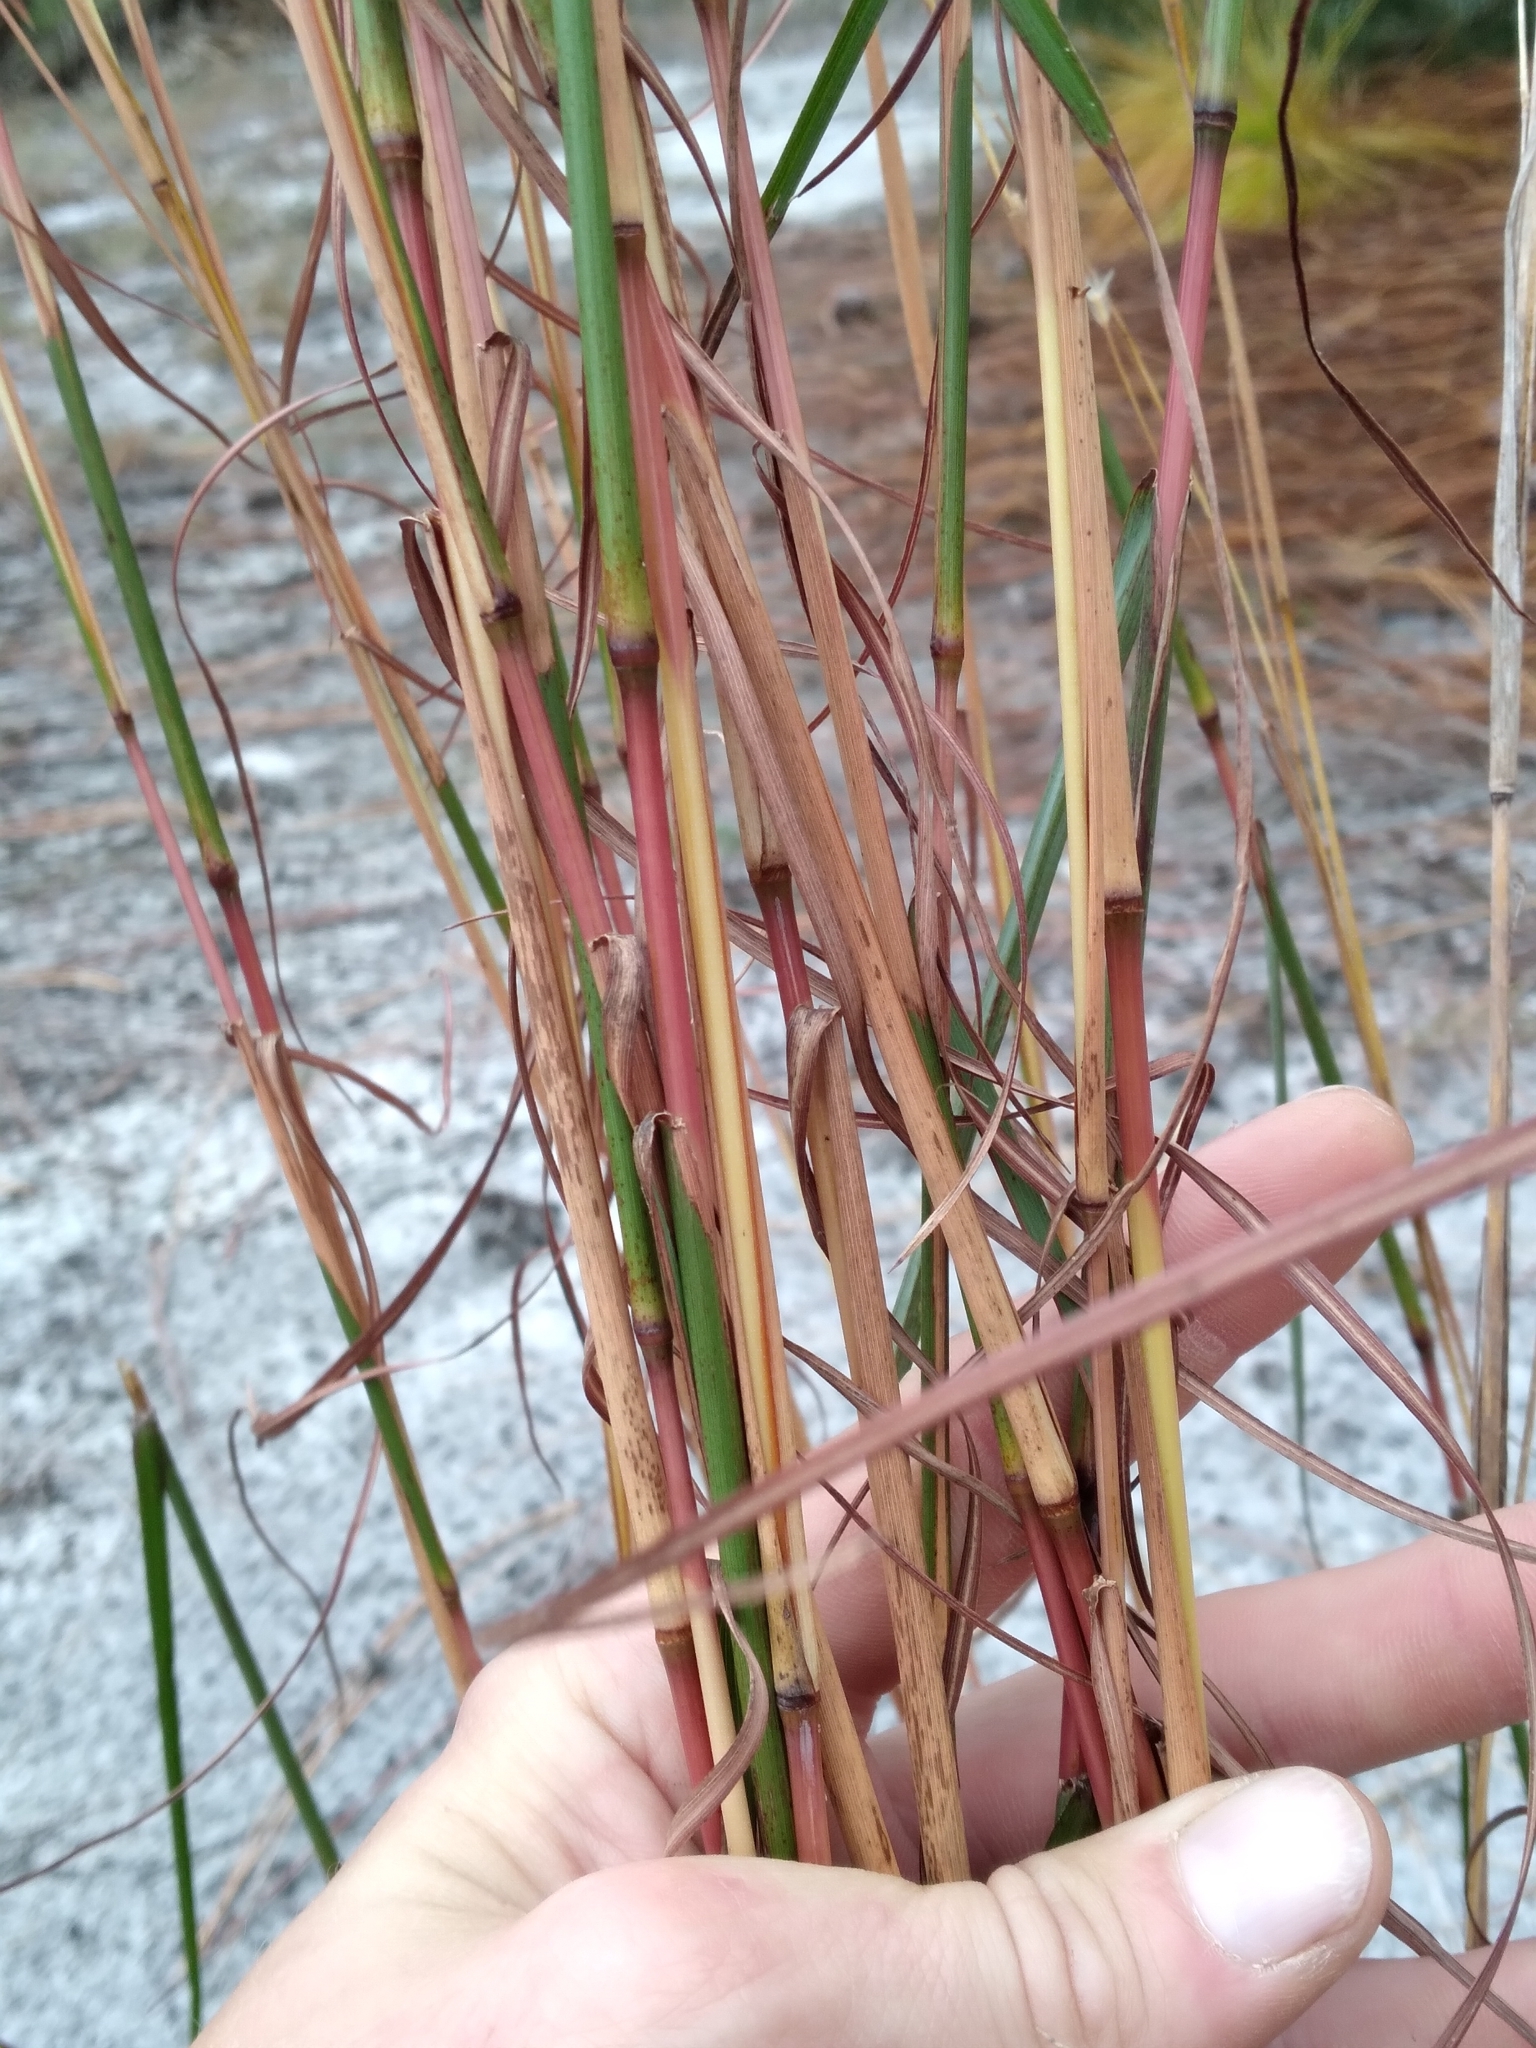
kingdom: Plantae
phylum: Tracheophyta
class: Liliopsida
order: Poales
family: Poaceae
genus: Andropogon
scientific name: Andropogon cabanisii
